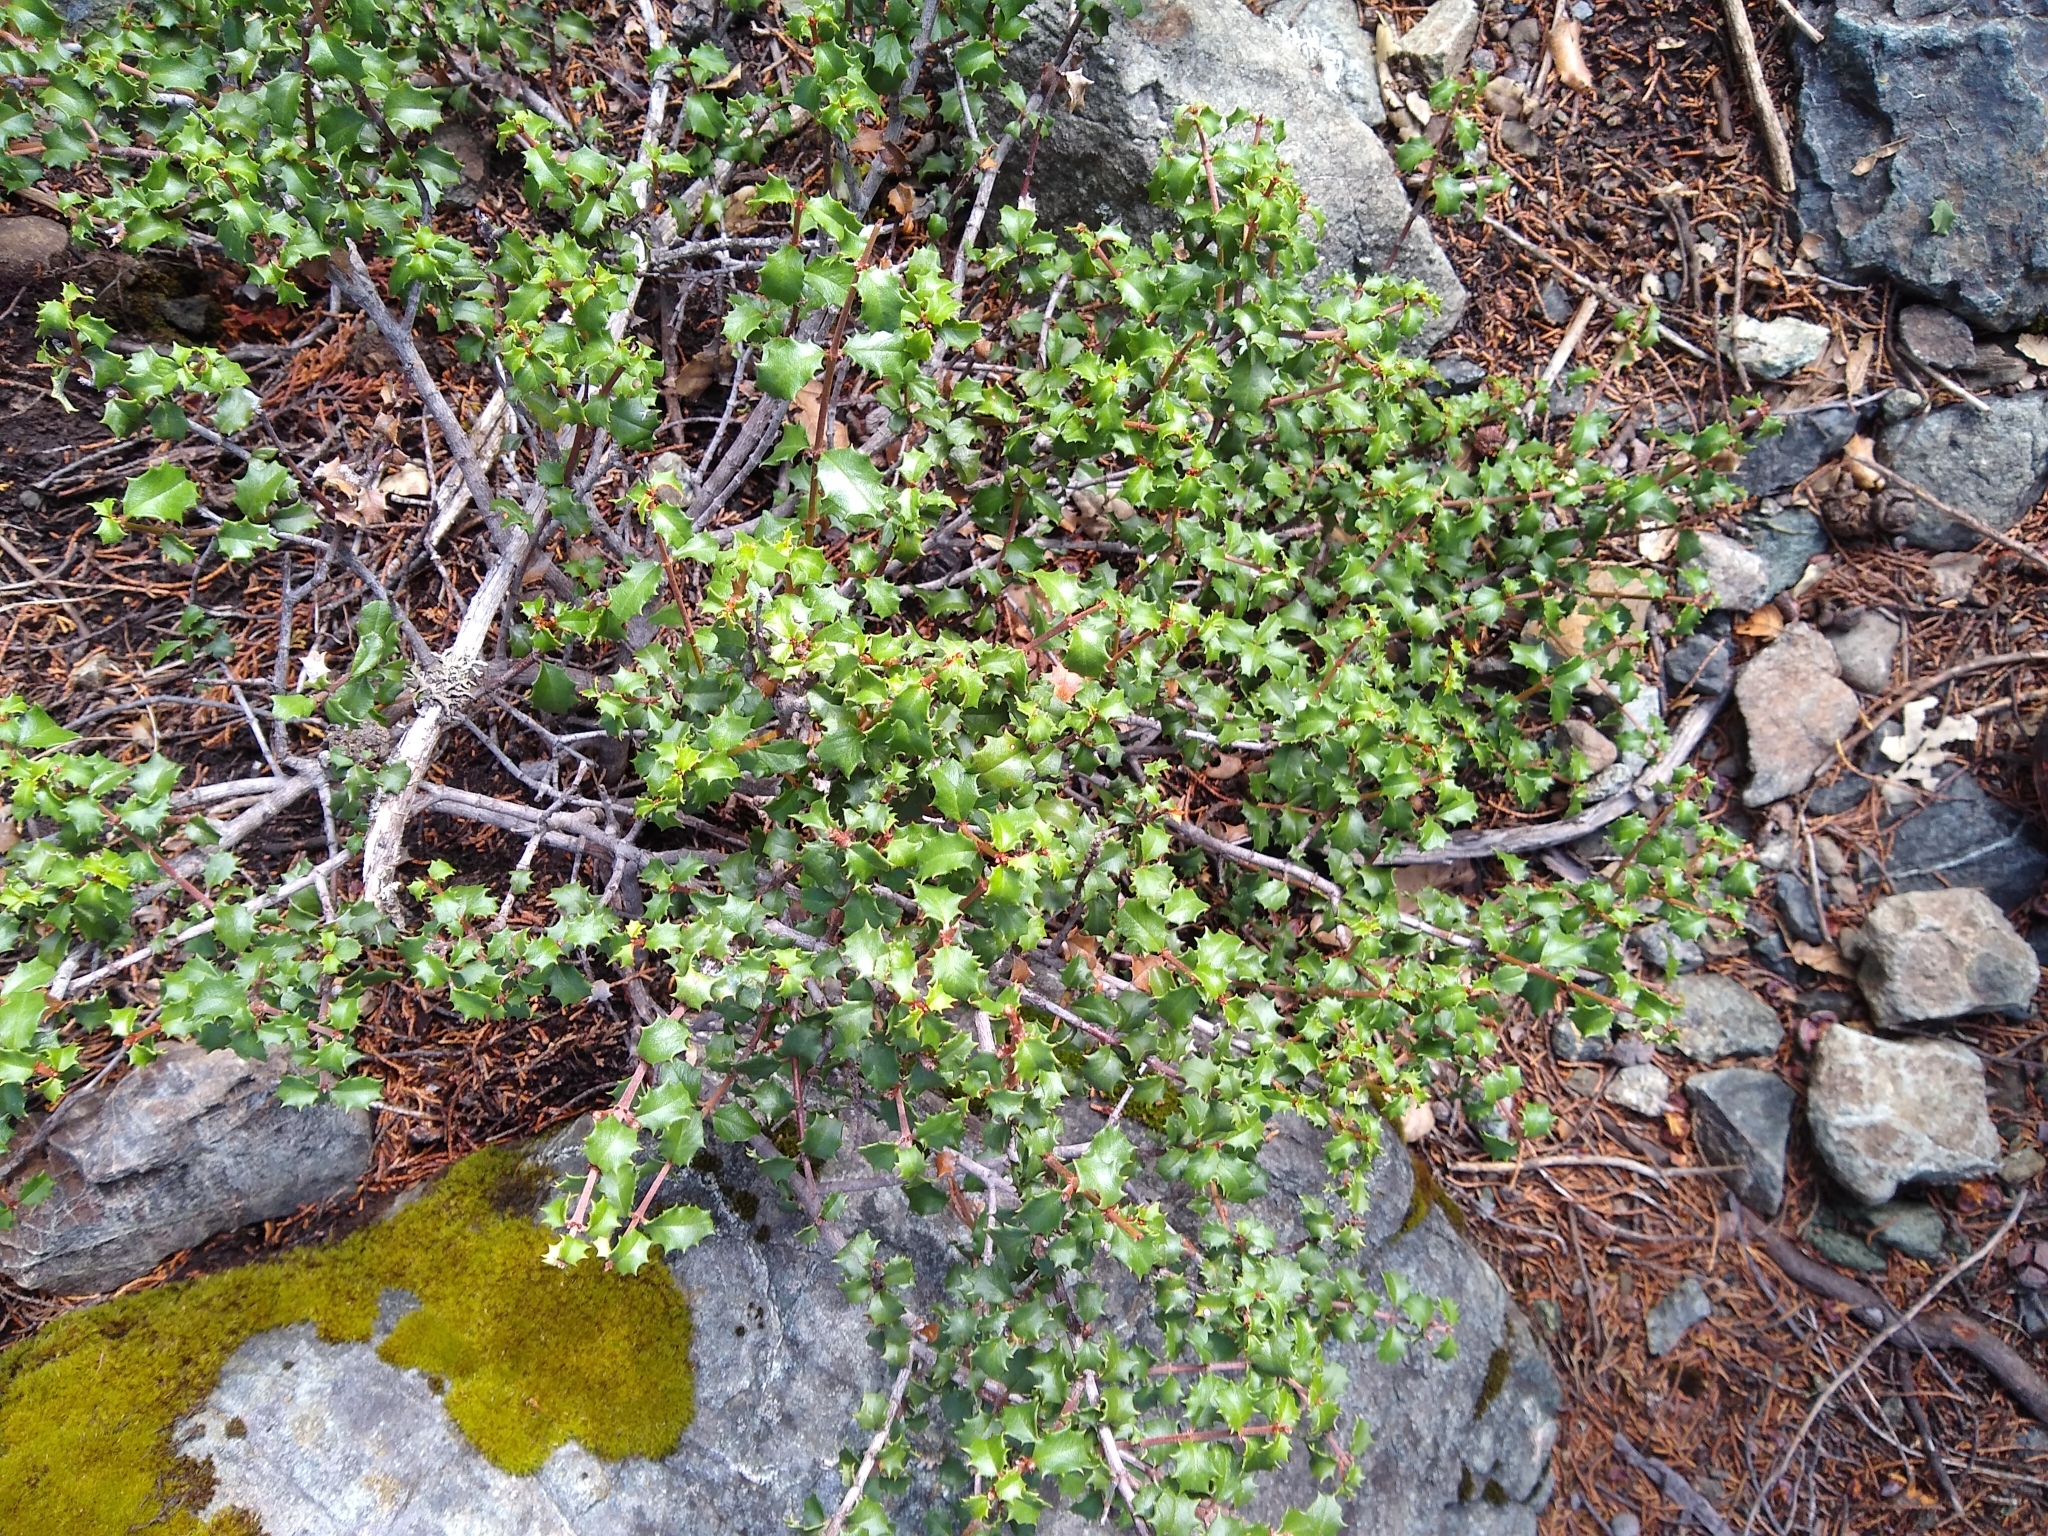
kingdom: Plantae
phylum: Tracheophyta
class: Magnoliopsida
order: Rosales
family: Rhamnaceae
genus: Ceanothus
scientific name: Ceanothus jepsonii
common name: Muskbrush
